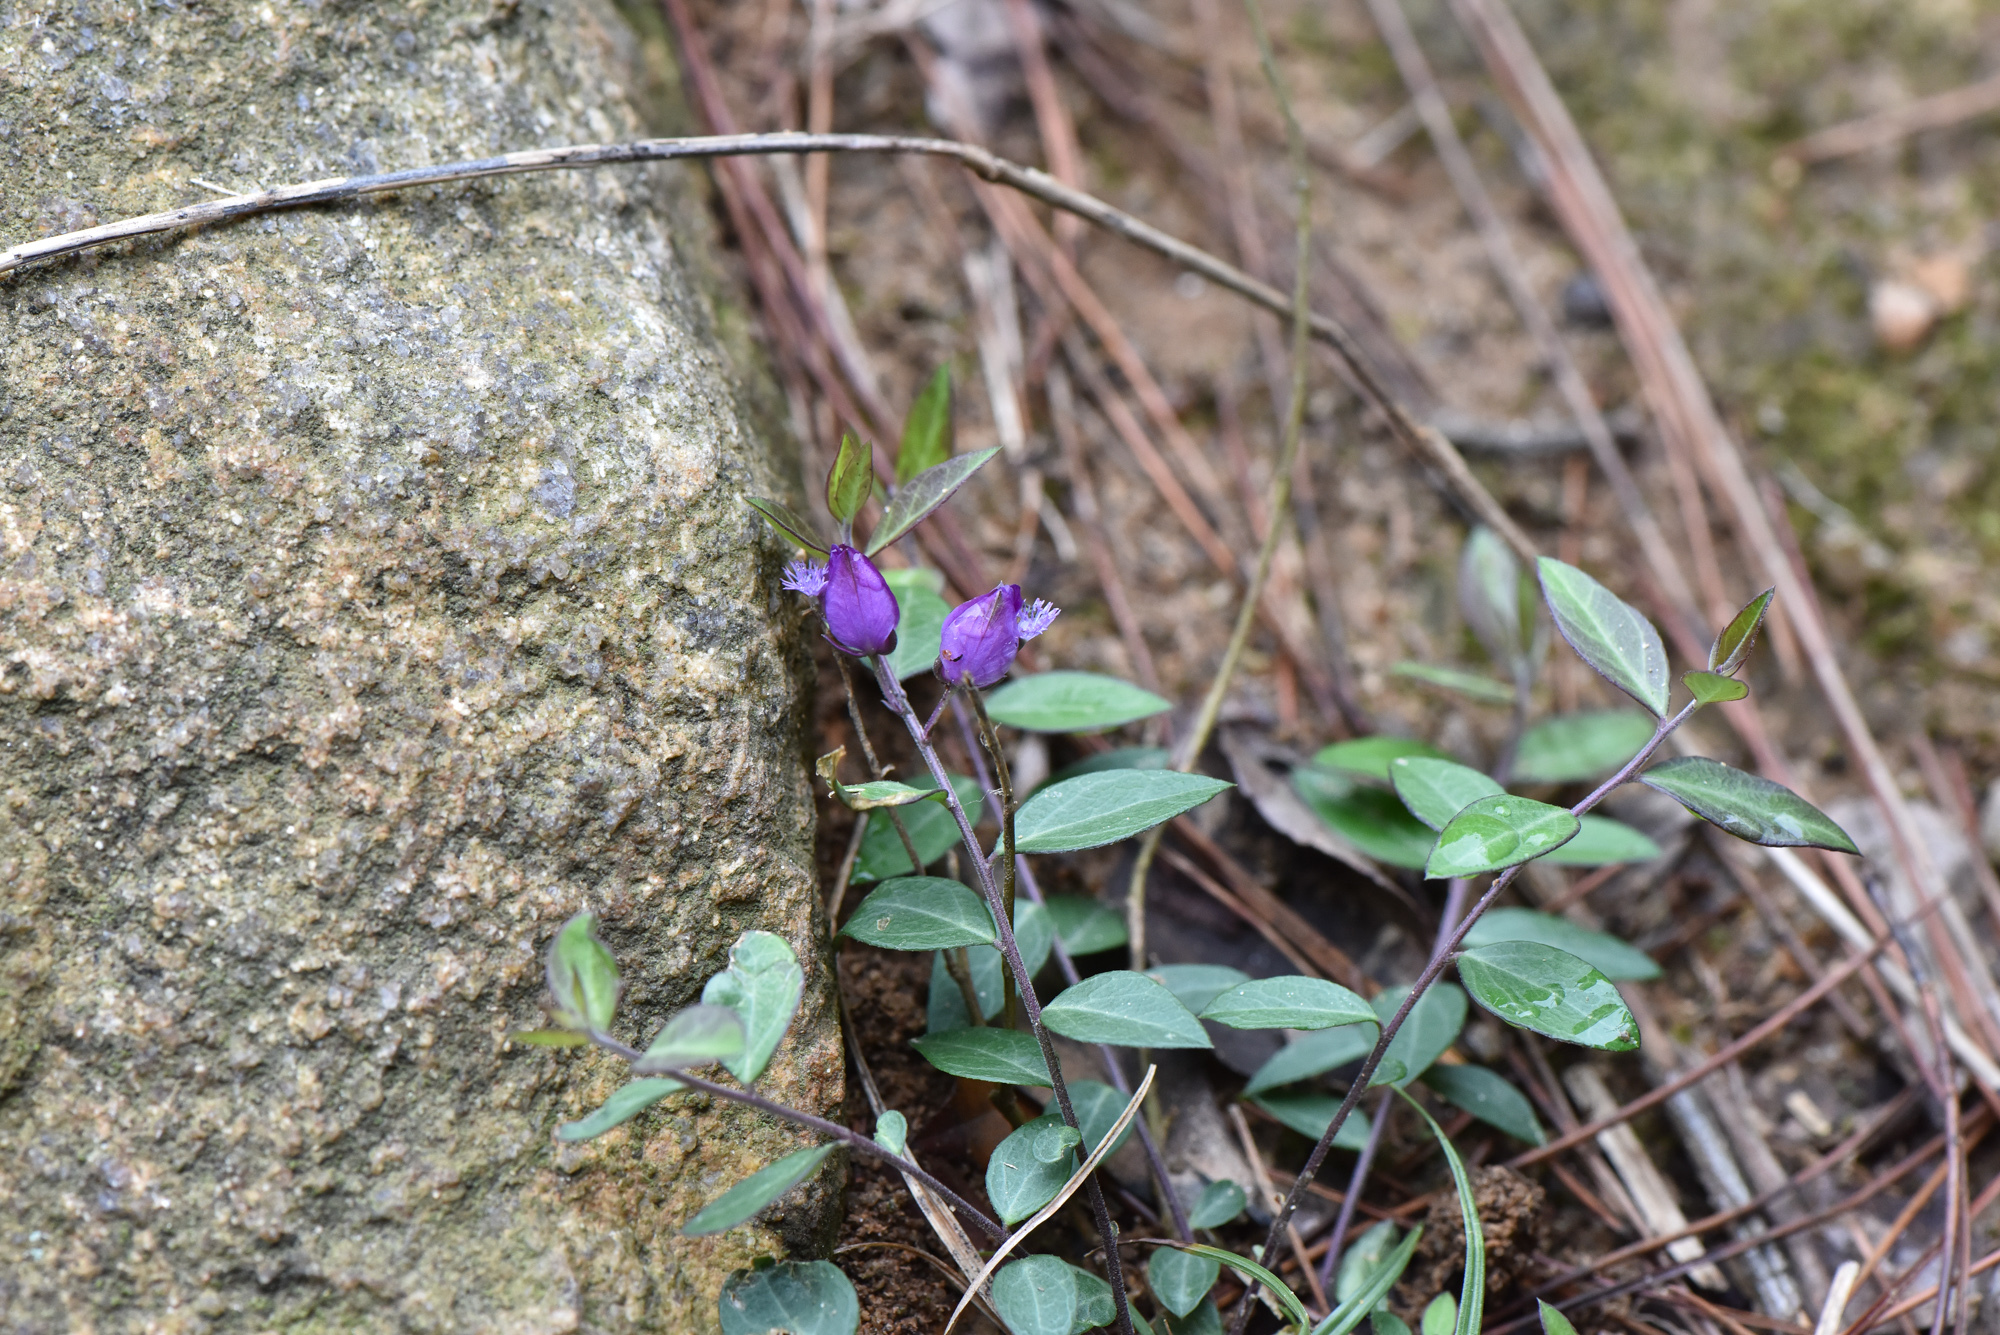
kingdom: Plantae
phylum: Tracheophyta
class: Magnoliopsida
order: Fabales
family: Polygalaceae
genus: Polygala
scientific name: Polygala japonica
